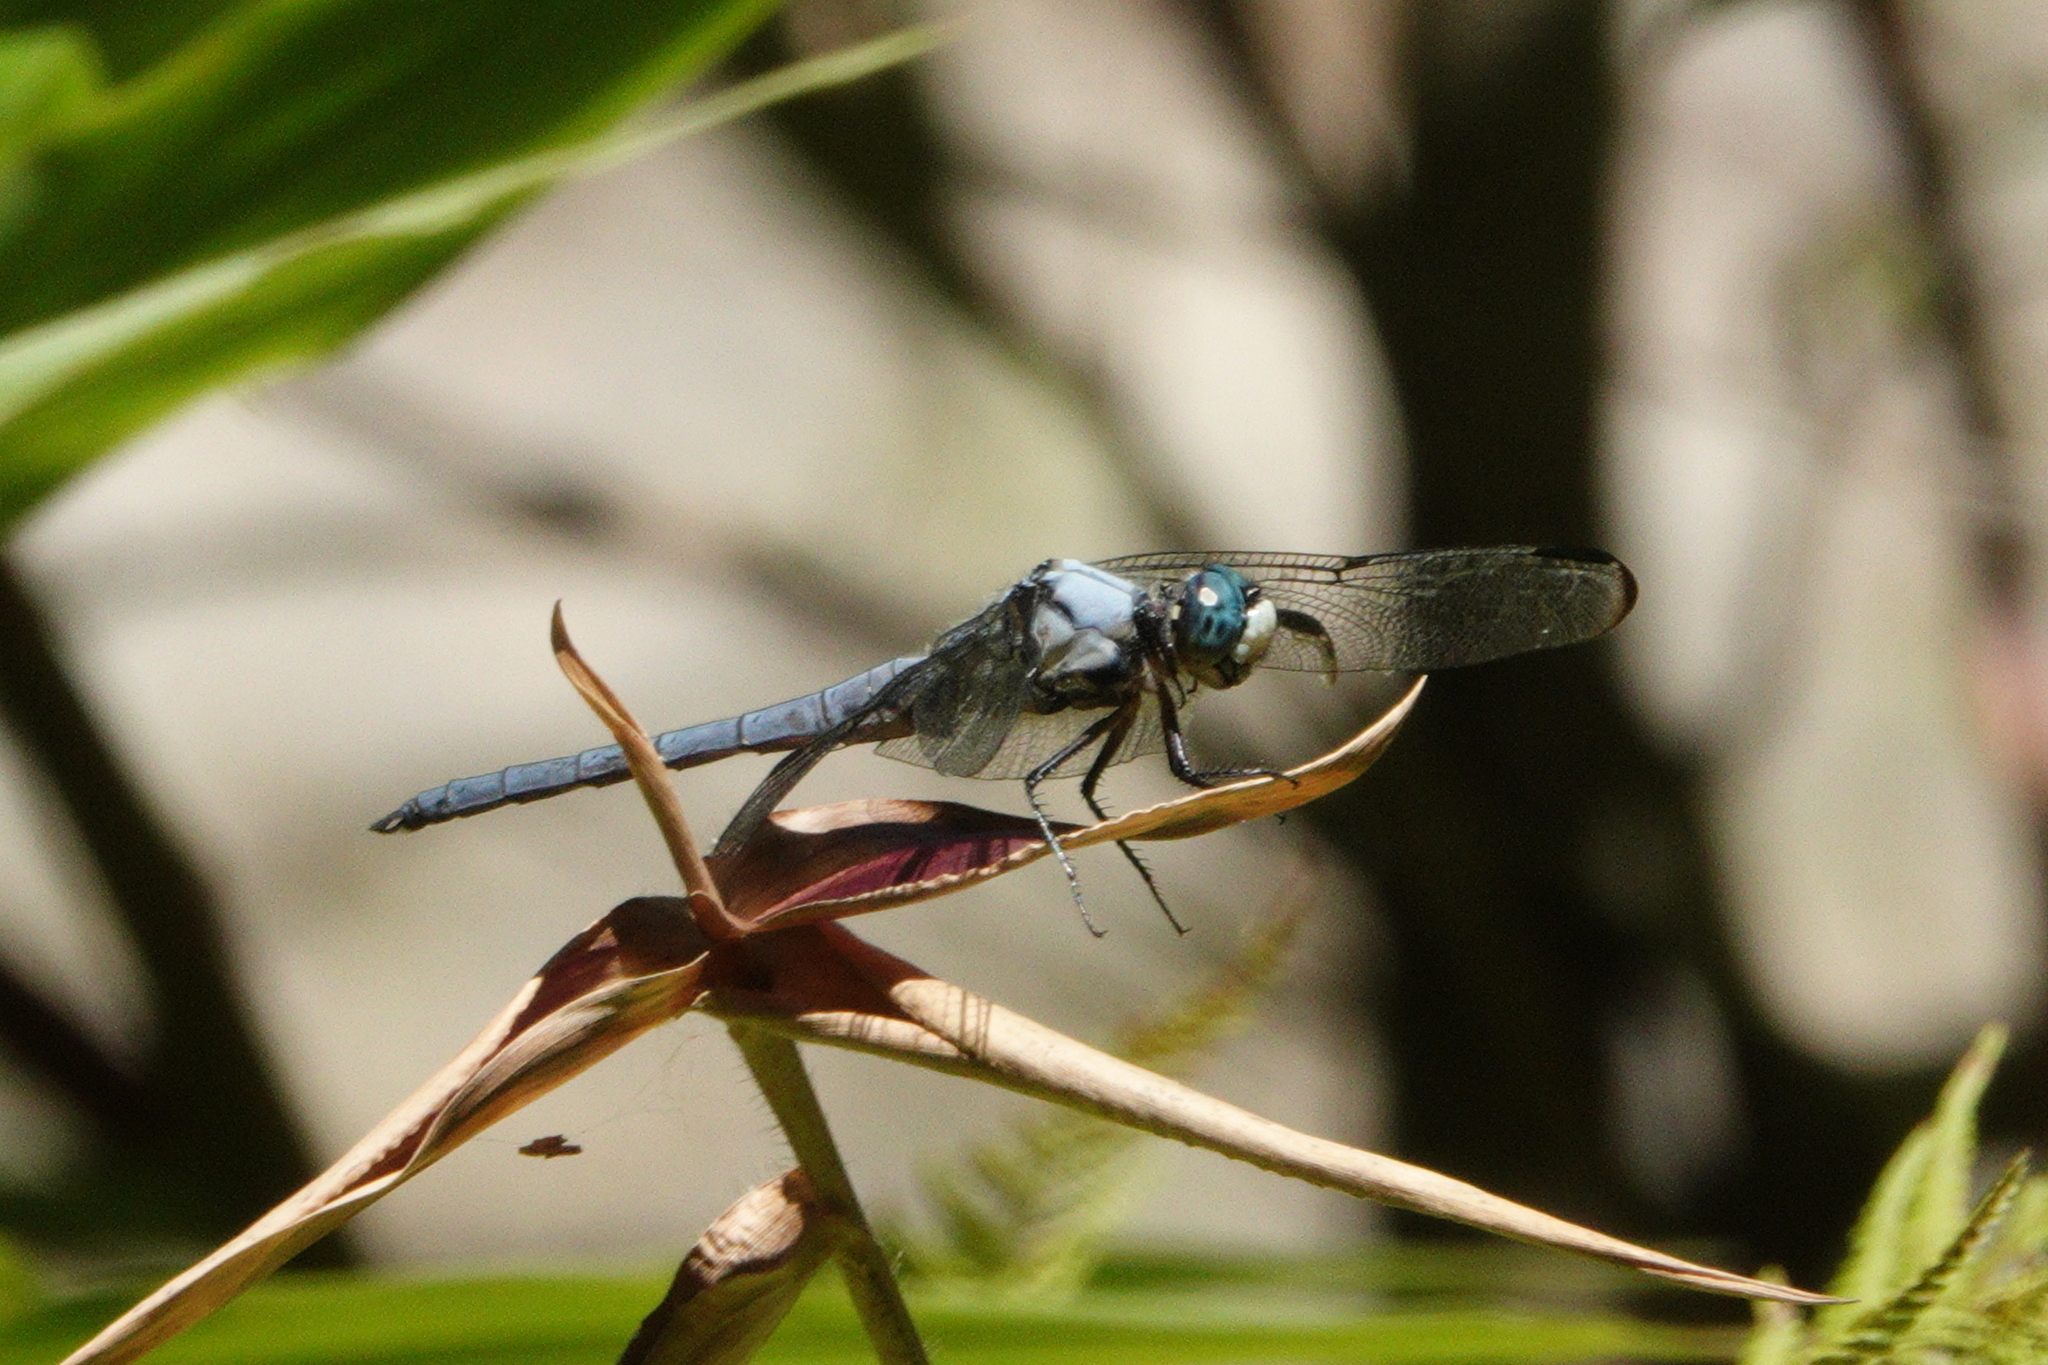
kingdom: Animalia
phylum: Arthropoda
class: Insecta
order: Odonata
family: Libellulidae
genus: Libellula
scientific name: Libellula vibrans
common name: Great blue skimmer
